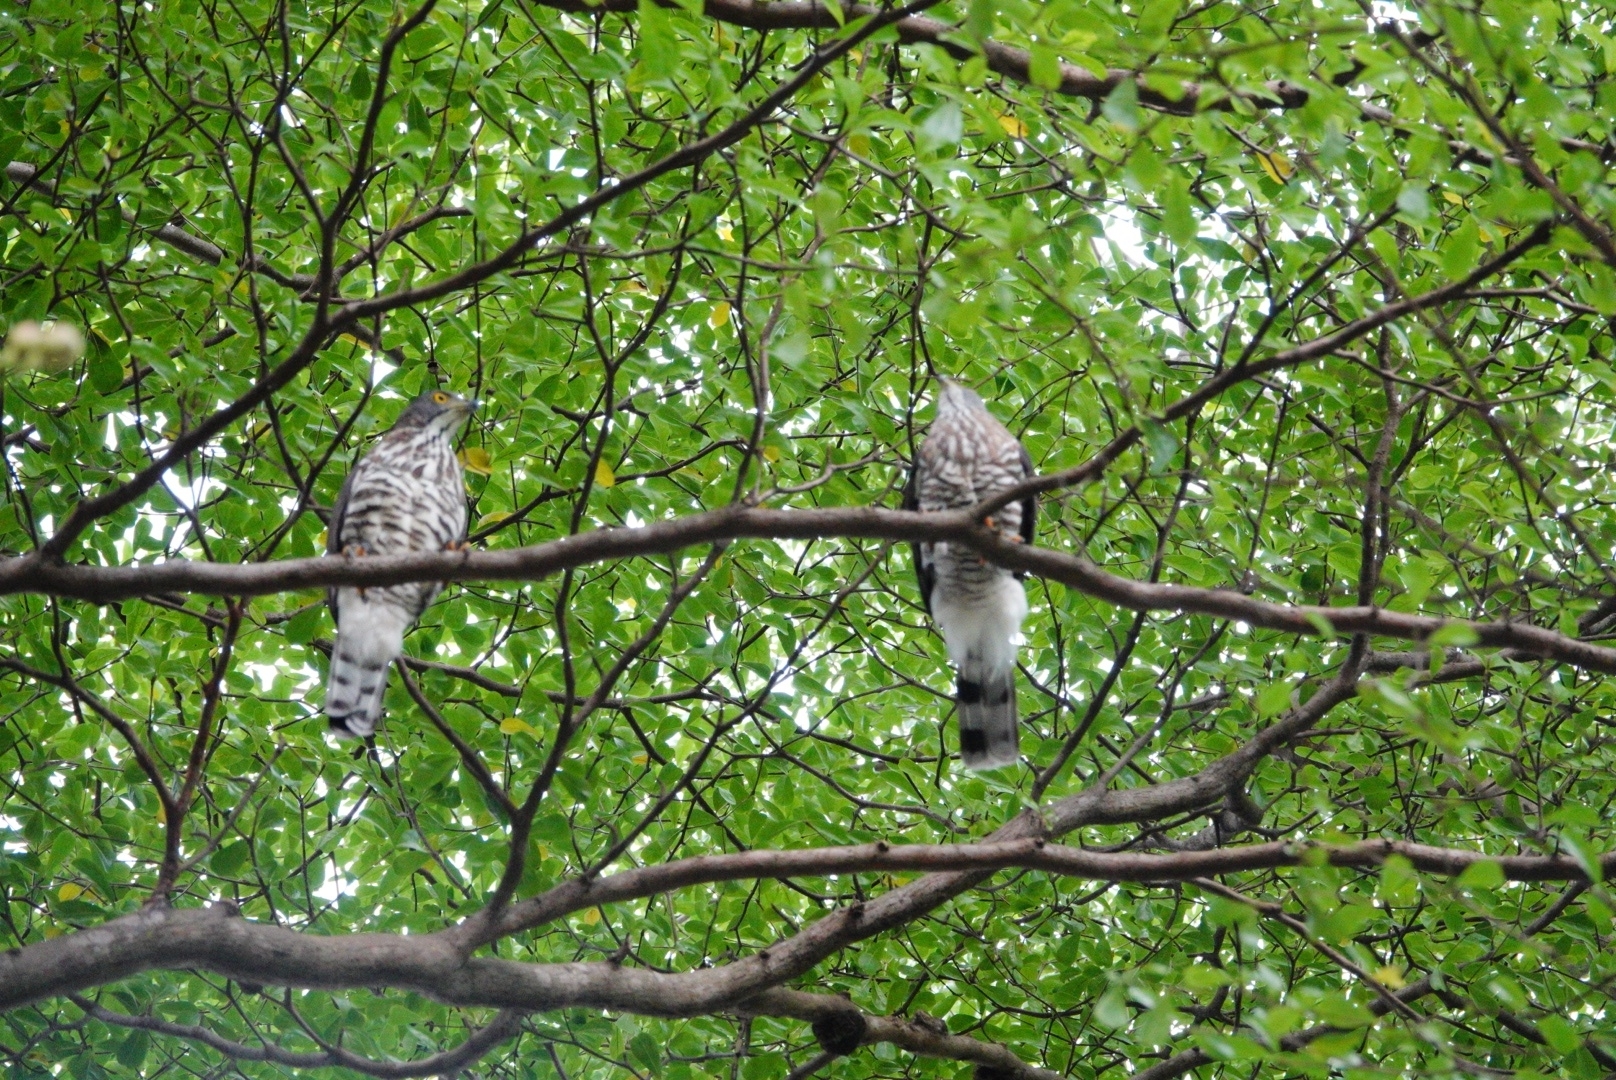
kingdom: Animalia
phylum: Chordata
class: Aves
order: Accipitriformes
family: Accipitridae
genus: Accipiter
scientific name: Accipiter trivirgatus
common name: Crested goshawk
